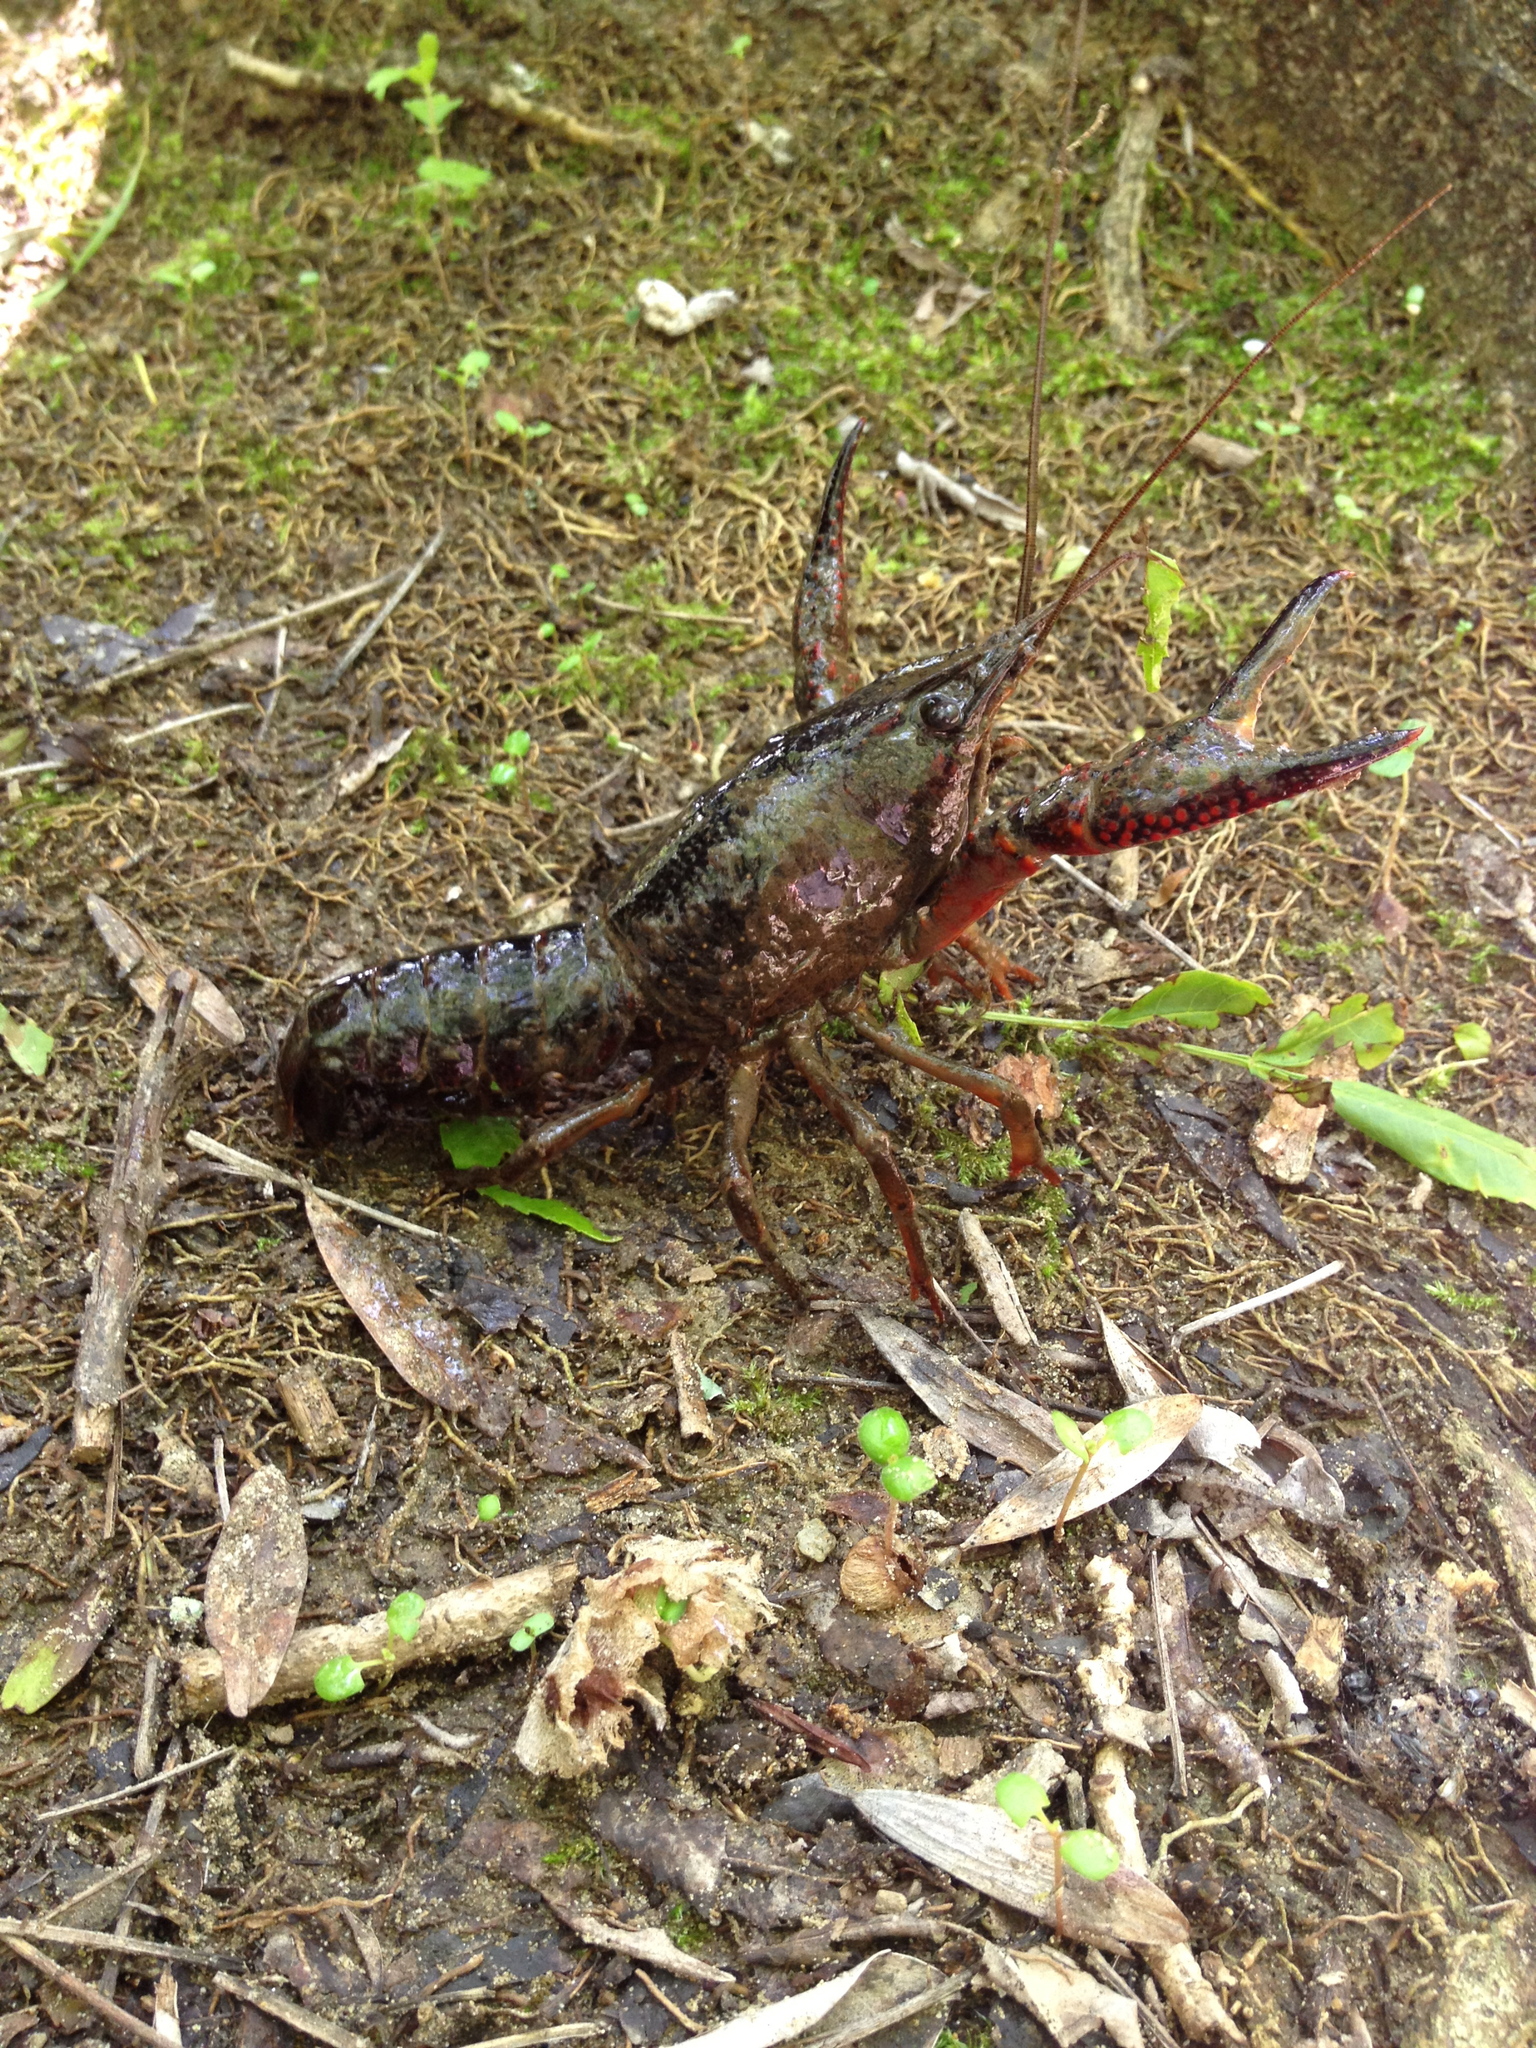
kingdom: Animalia
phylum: Arthropoda
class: Malacostraca
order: Decapoda
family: Cambaridae
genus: Procambarus
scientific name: Procambarus clarkii
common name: Red swamp crayfish
